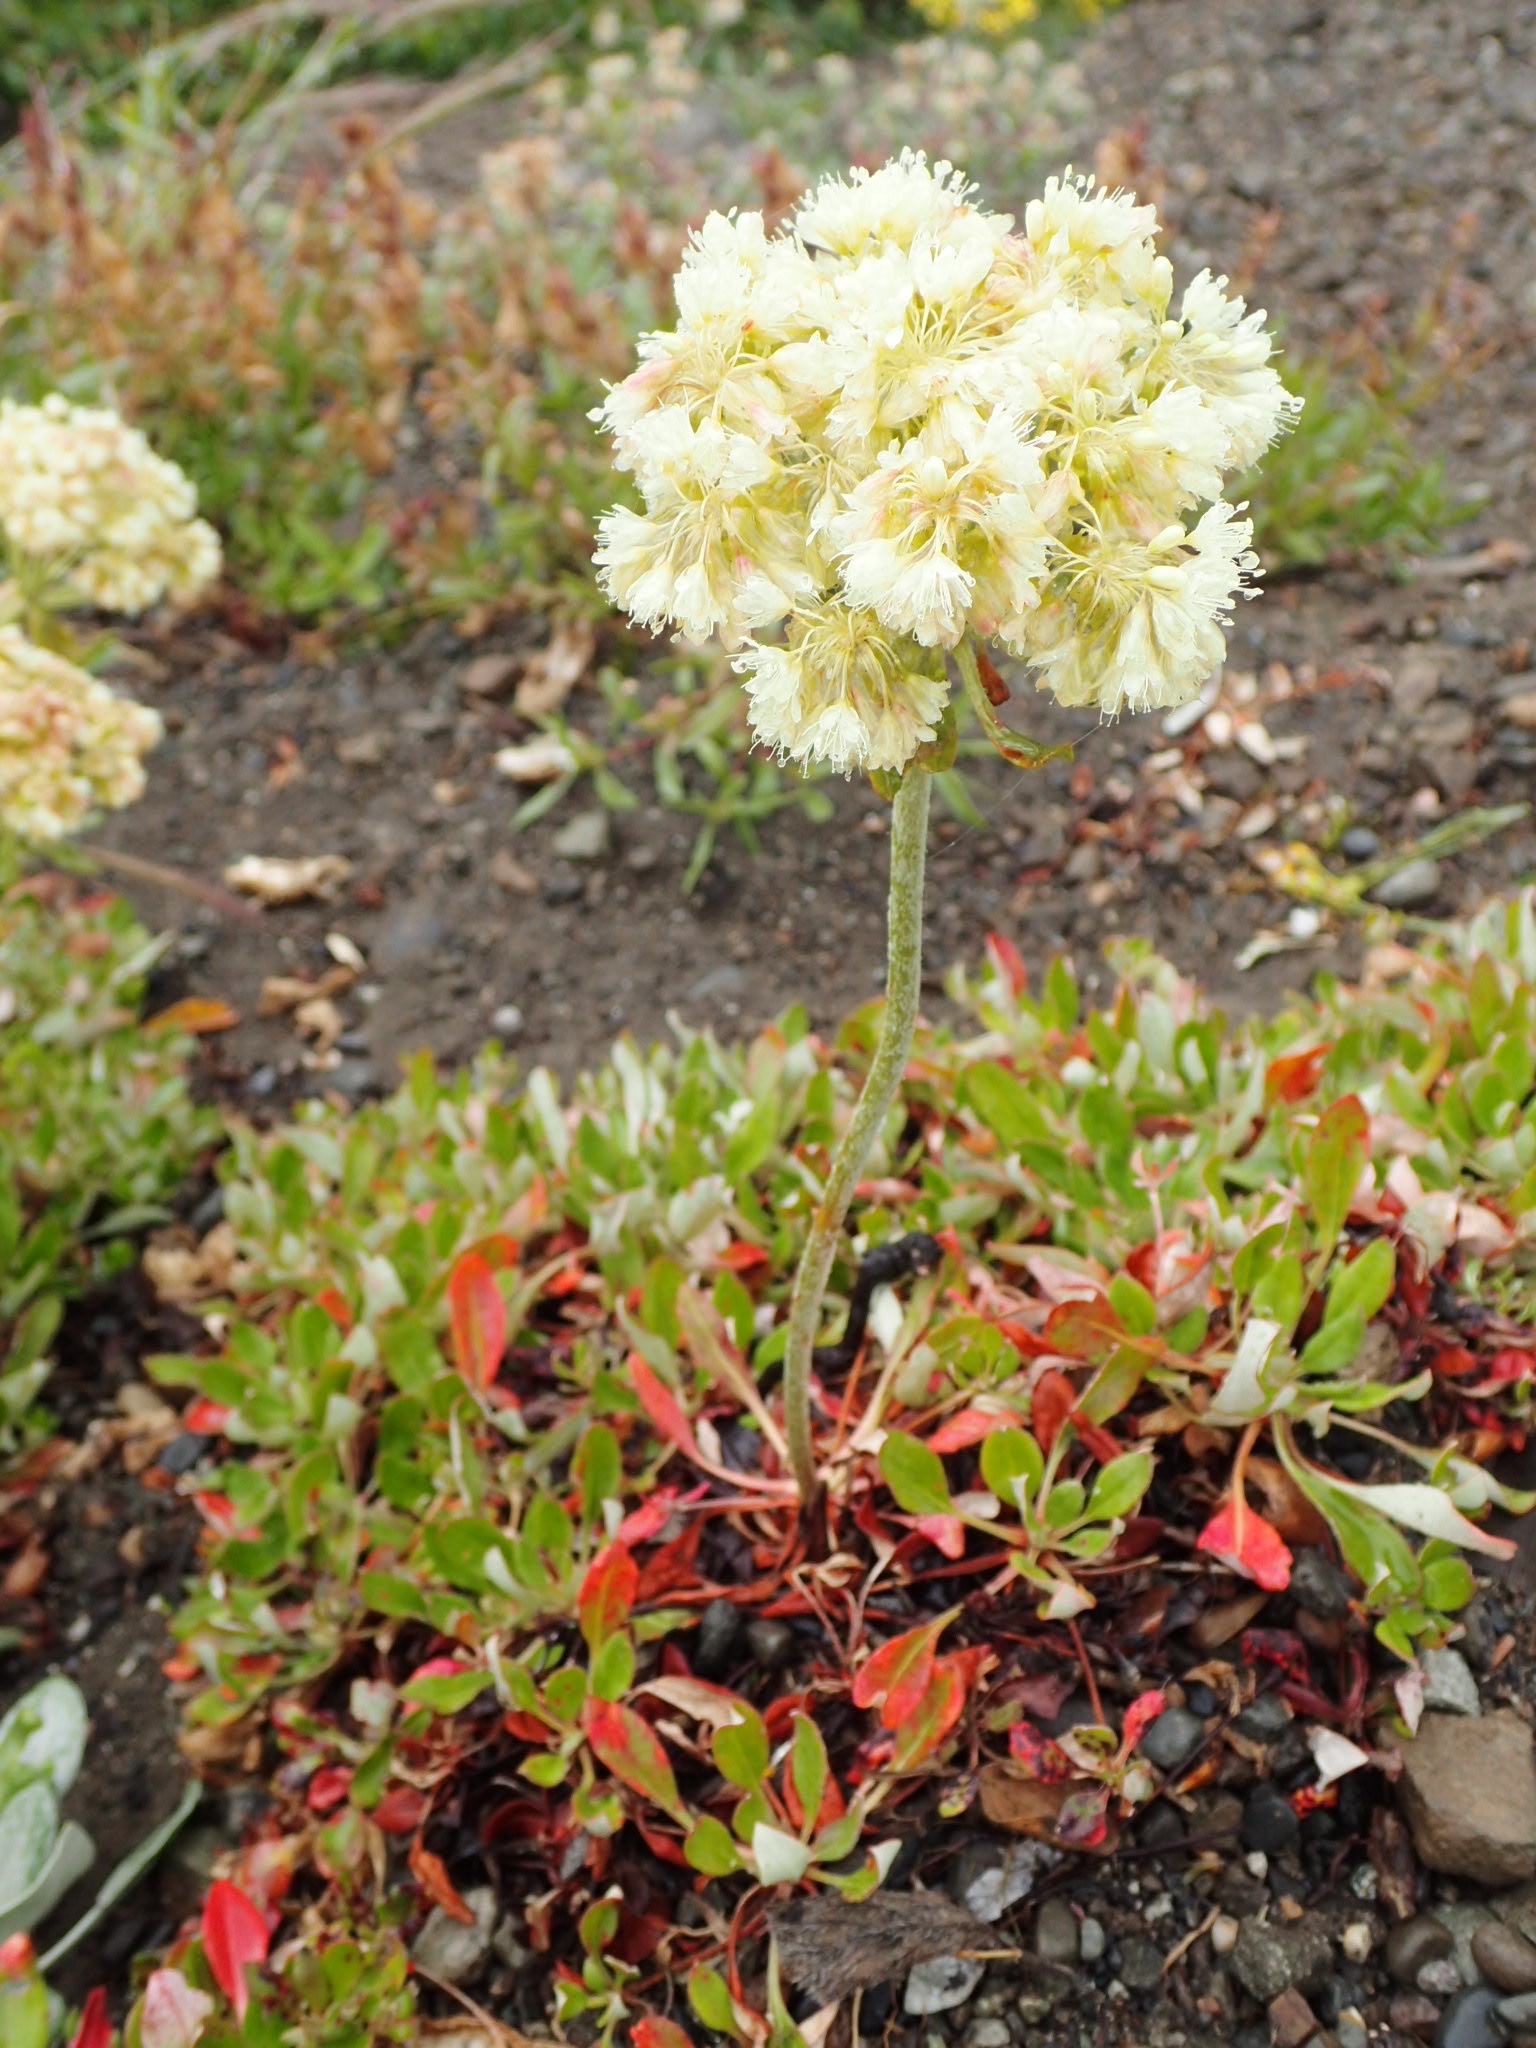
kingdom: Plantae
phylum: Tracheophyta
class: Magnoliopsida
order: Caryophyllales
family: Polygonaceae
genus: Eriogonum
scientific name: Eriogonum umbellatum
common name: Sulfur-buckwheat
